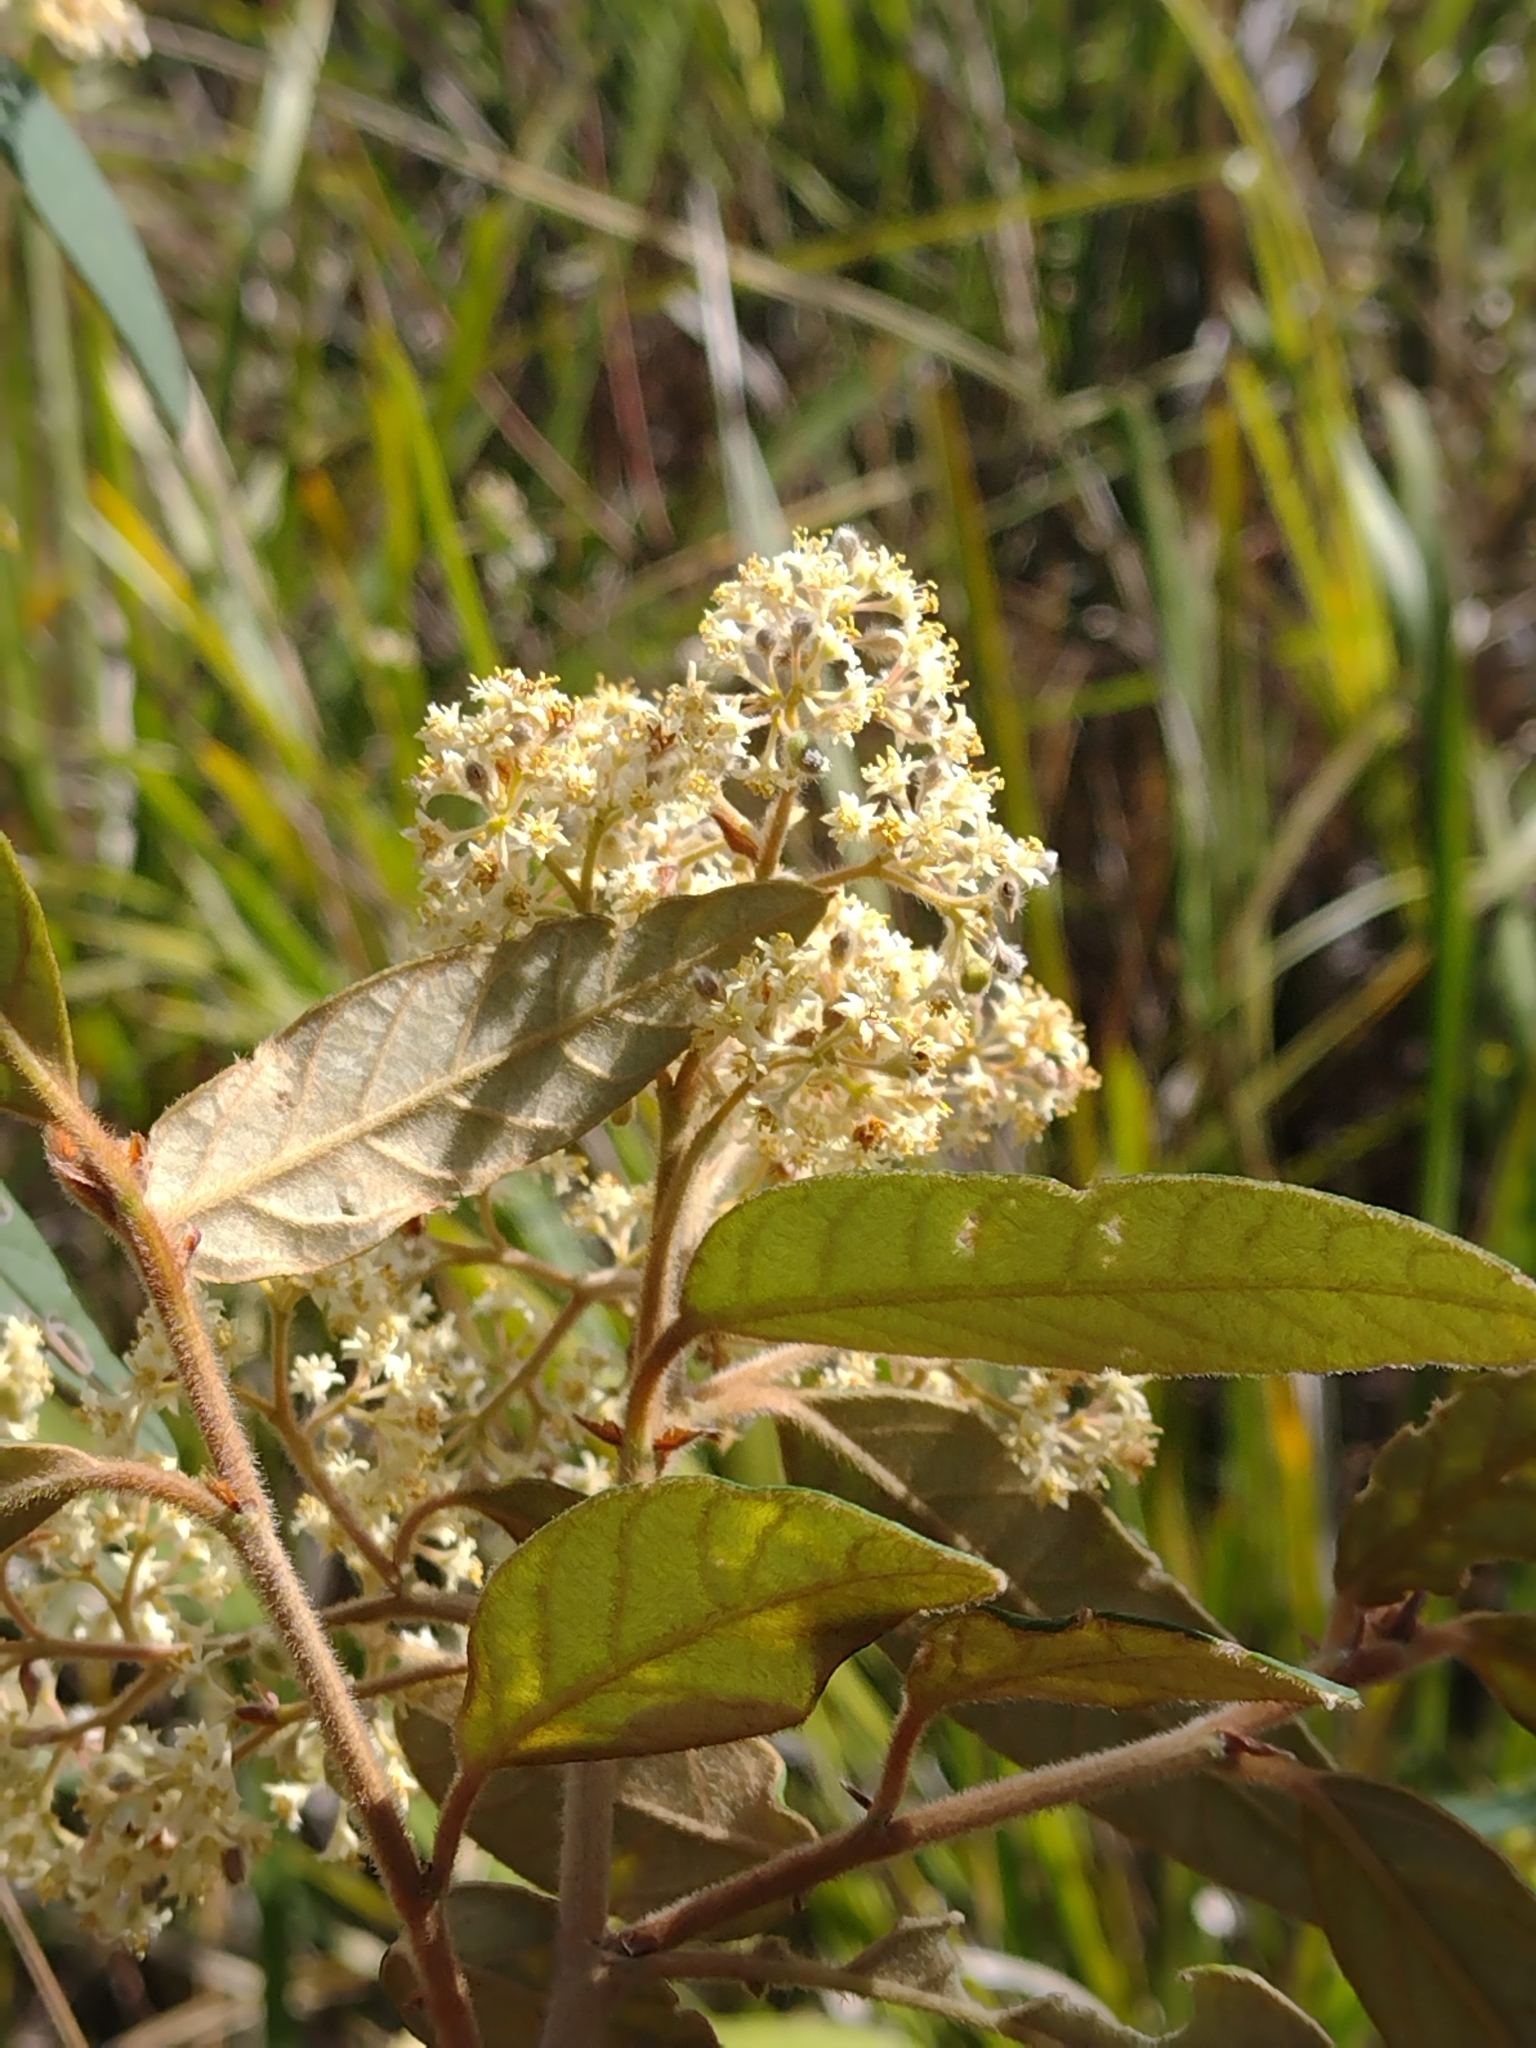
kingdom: Plantae
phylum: Tracheophyta
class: Magnoliopsida
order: Rosales
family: Rhamnaceae
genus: Pomaderris
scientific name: Pomaderris wendlandiana
